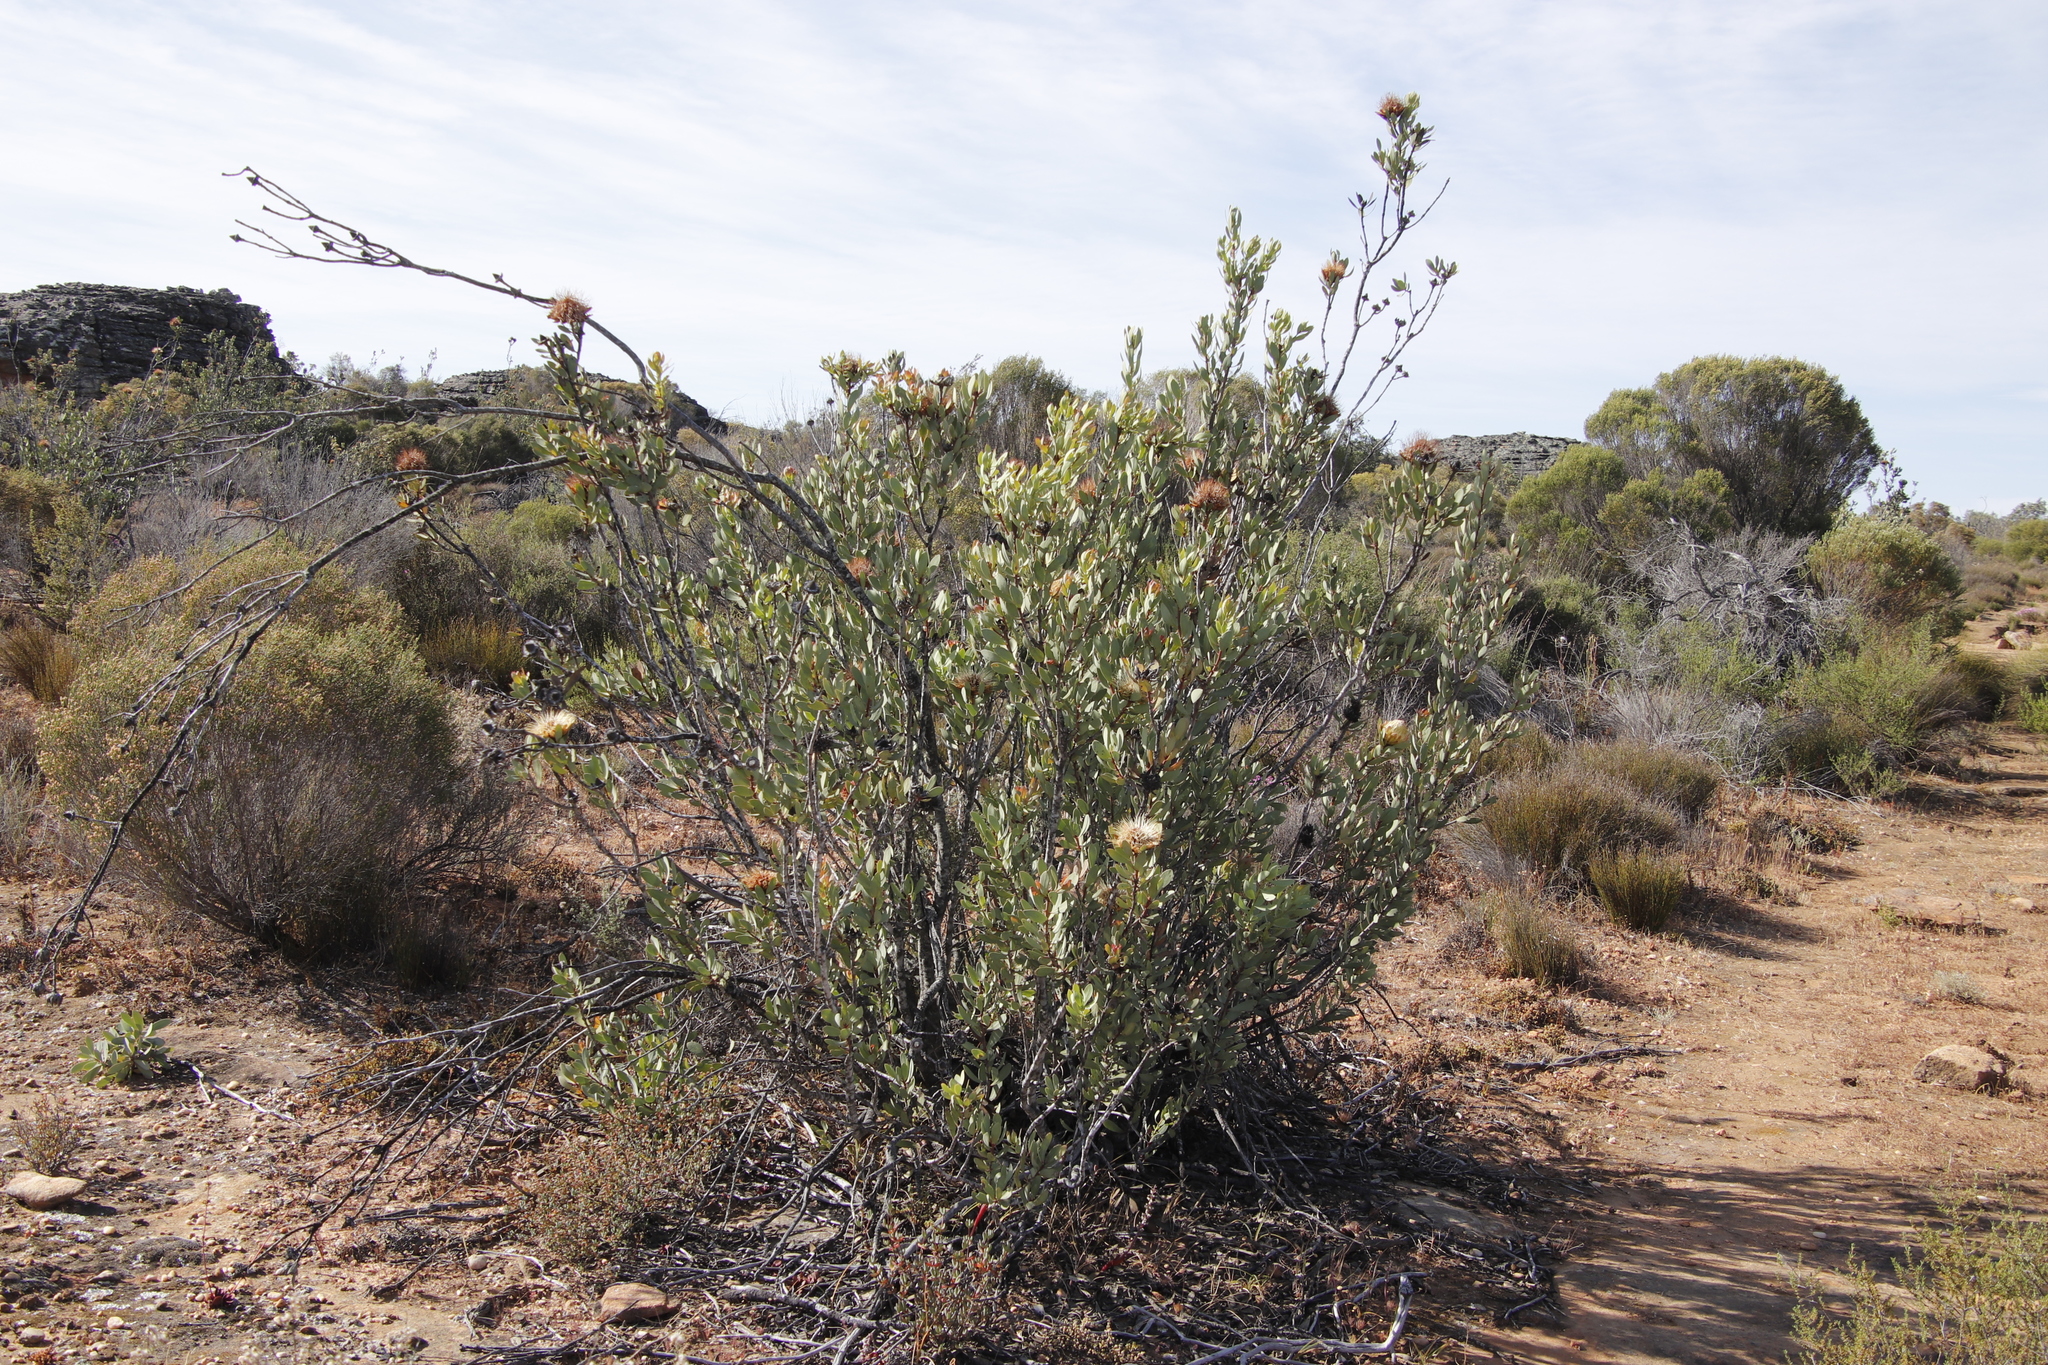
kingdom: Plantae
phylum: Tracheophyta
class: Magnoliopsida
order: Proteales
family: Proteaceae
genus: Protea
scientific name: Protea glabra
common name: Chestnut sugarbush
